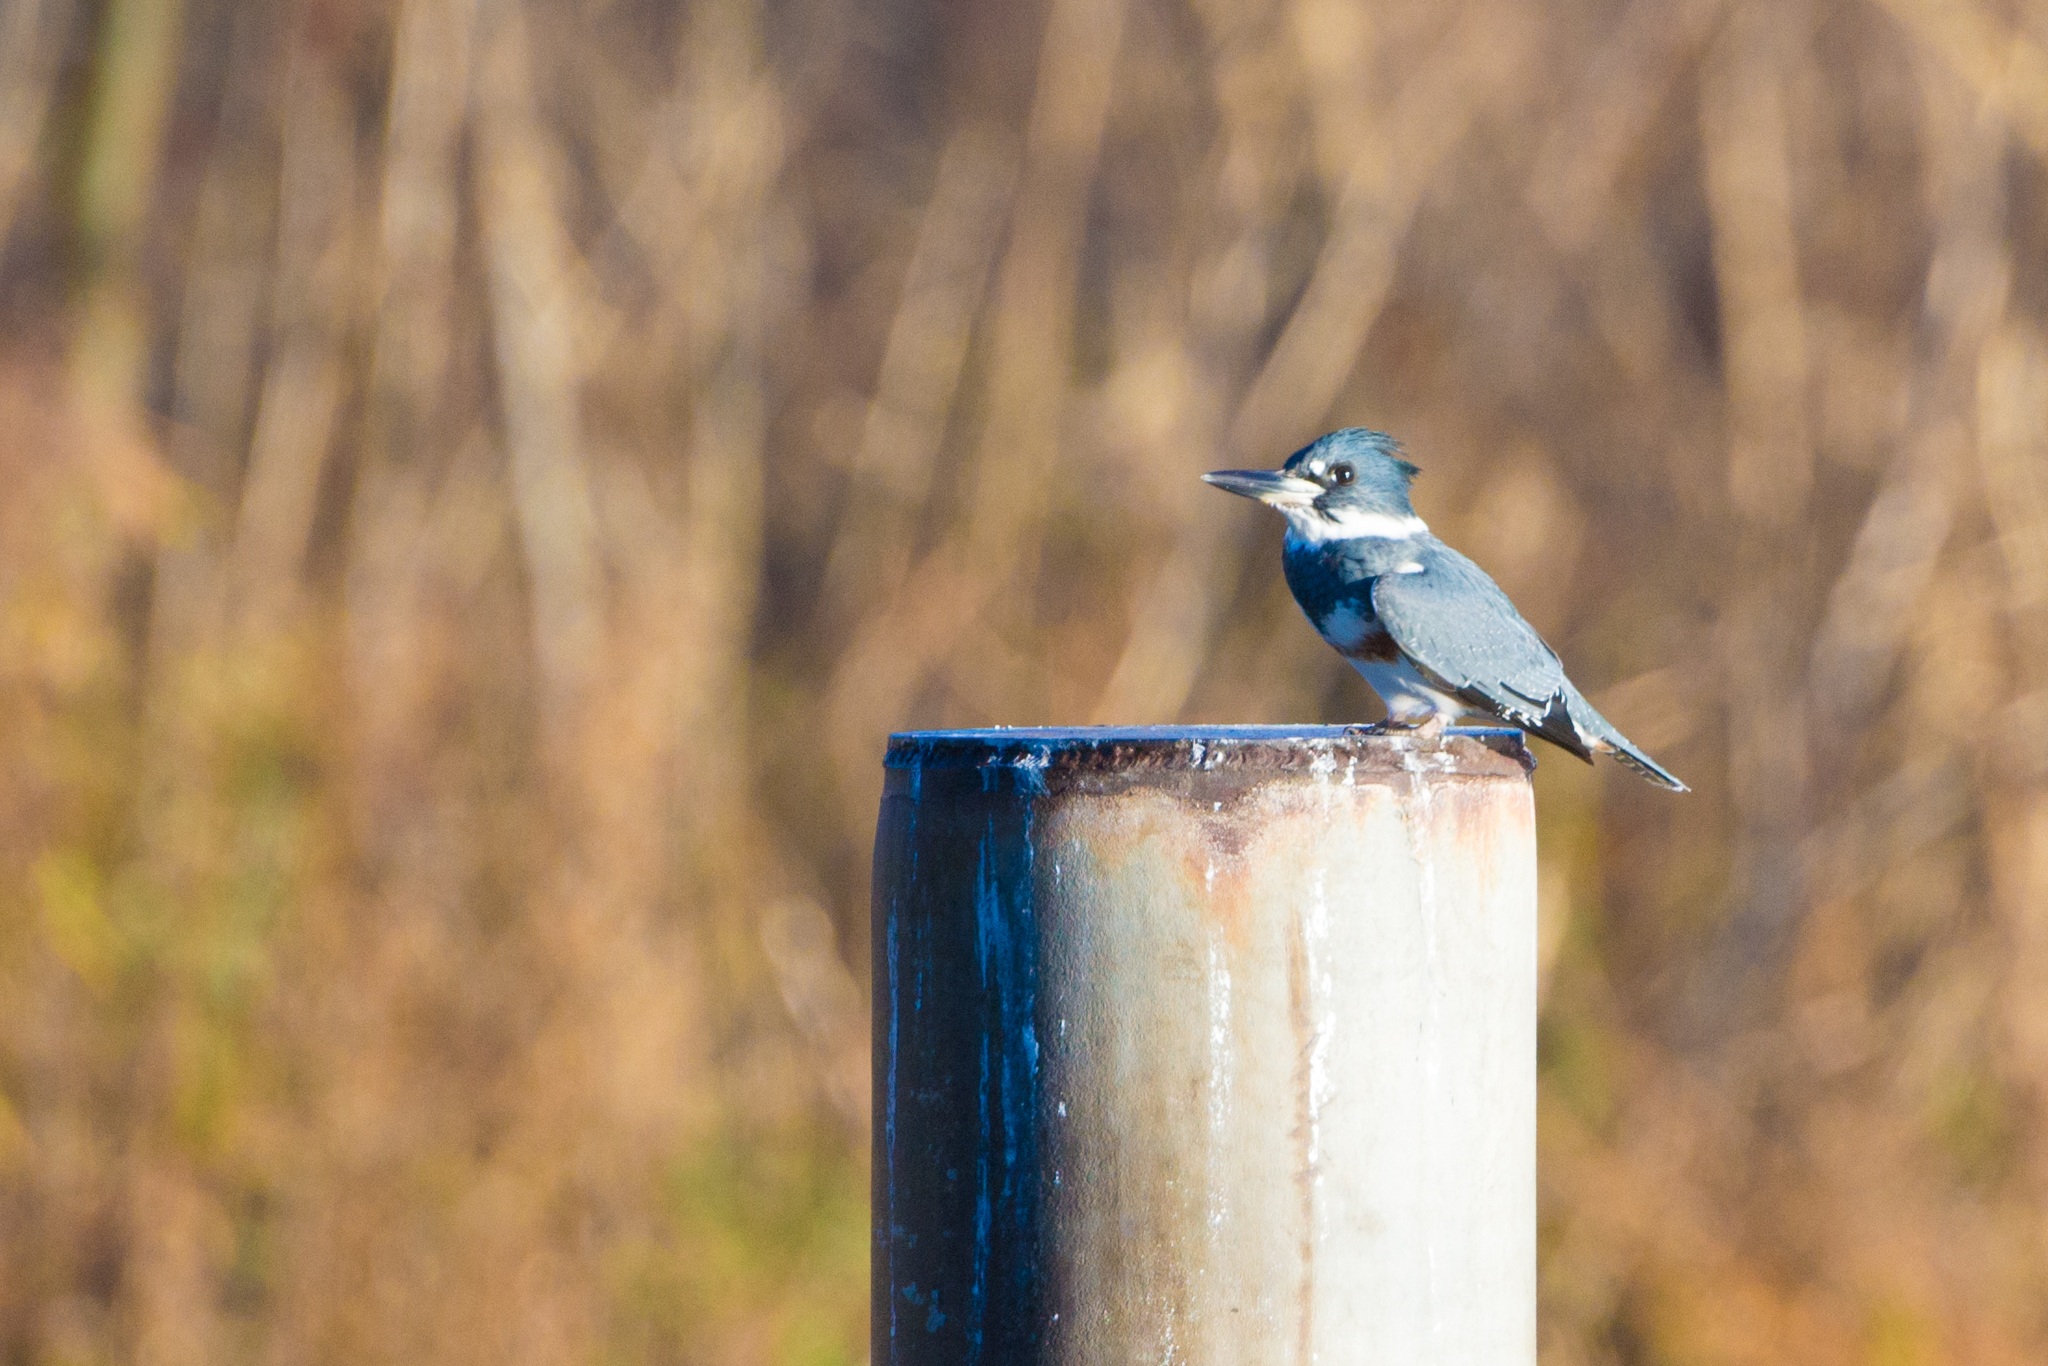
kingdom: Animalia
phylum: Chordata
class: Aves
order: Coraciiformes
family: Alcedinidae
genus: Megaceryle
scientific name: Megaceryle alcyon
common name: Belted kingfisher
